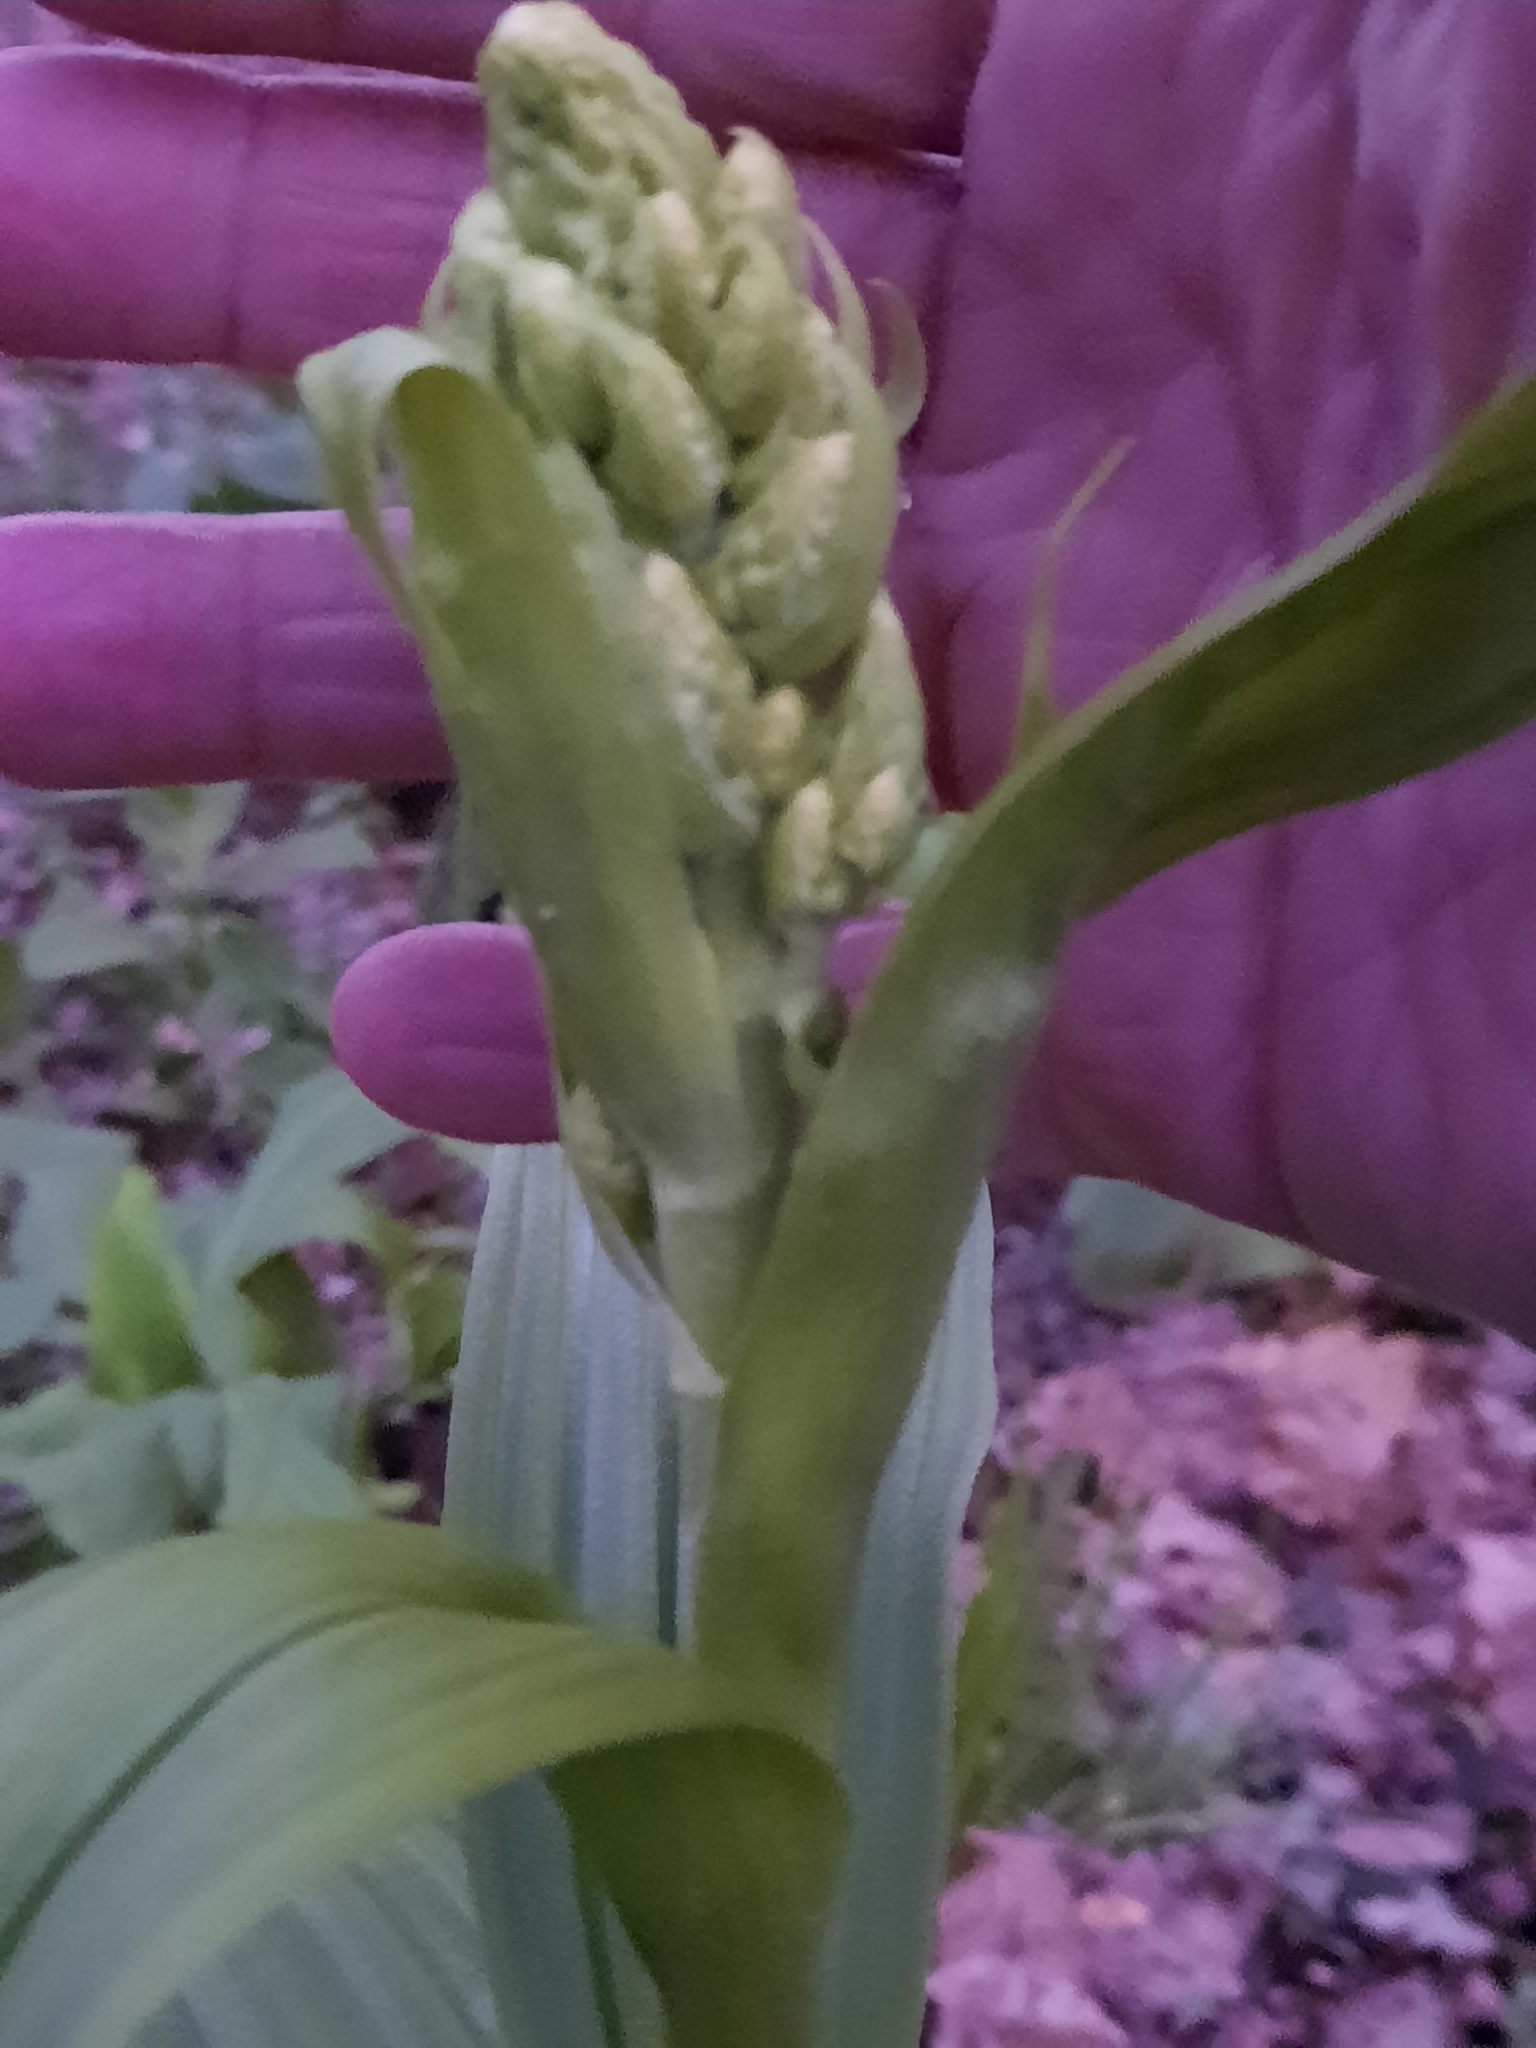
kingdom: Plantae
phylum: Tracheophyta
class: Liliopsida
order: Liliales
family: Melanthiaceae
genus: Veratrum
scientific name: Veratrum viride
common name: American false hellebore
